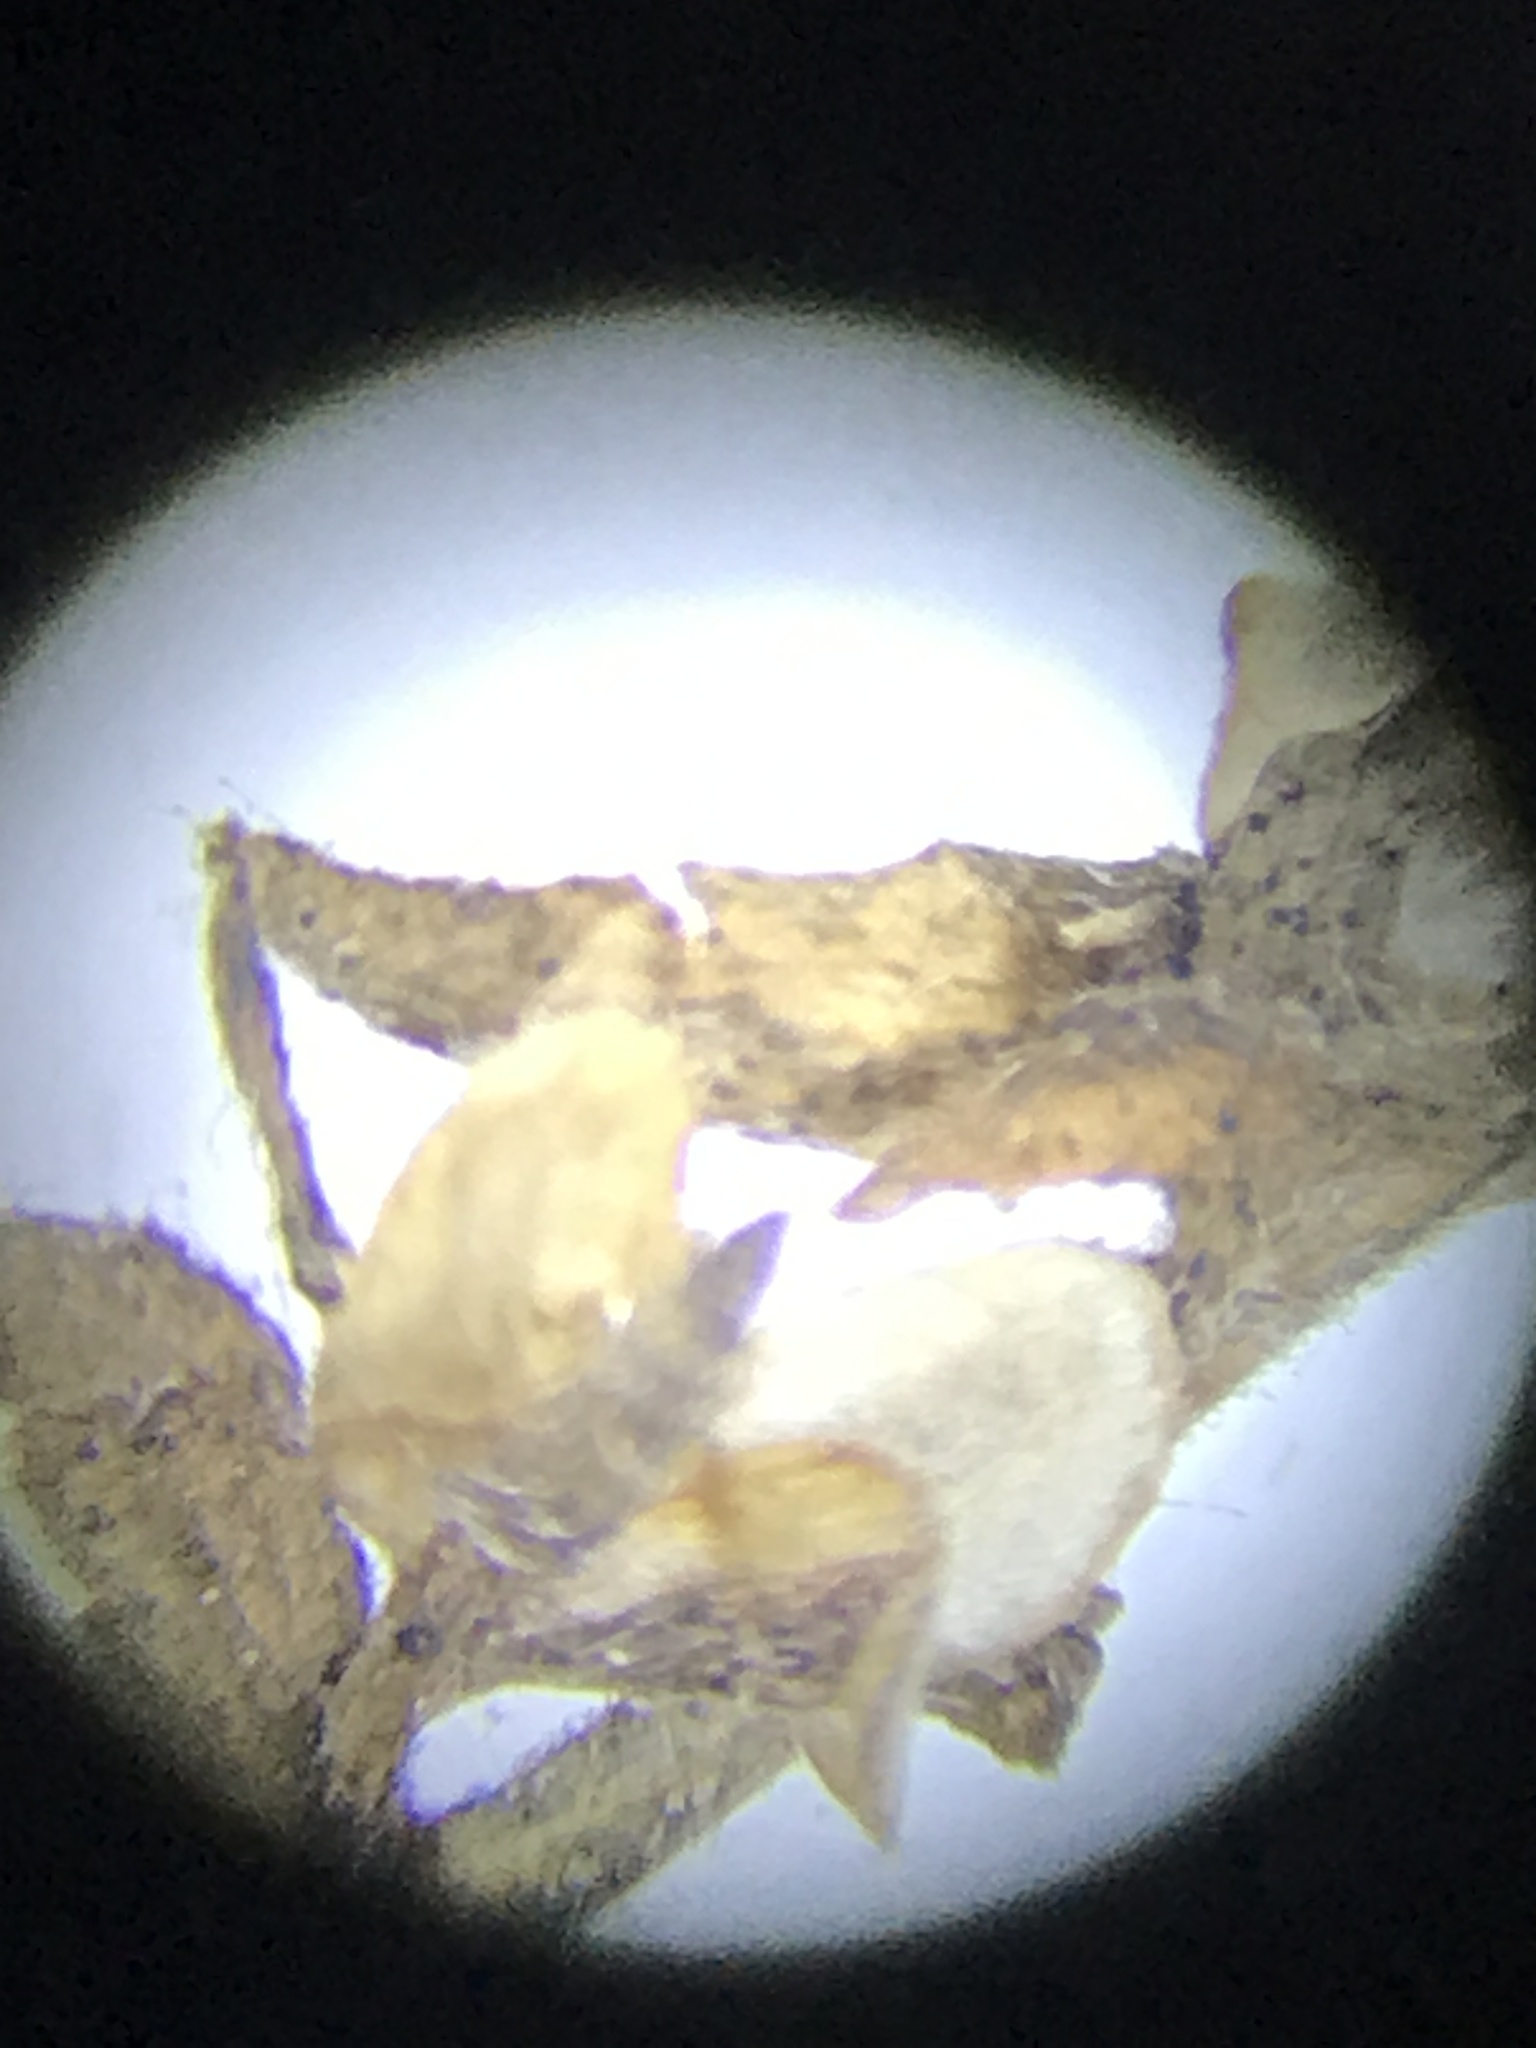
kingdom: Plantae
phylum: Tracheophyta
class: Magnoliopsida
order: Lamiales
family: Plantaginaceae
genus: Veronica
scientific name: Veronica arvensis
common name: Corn speedwell
